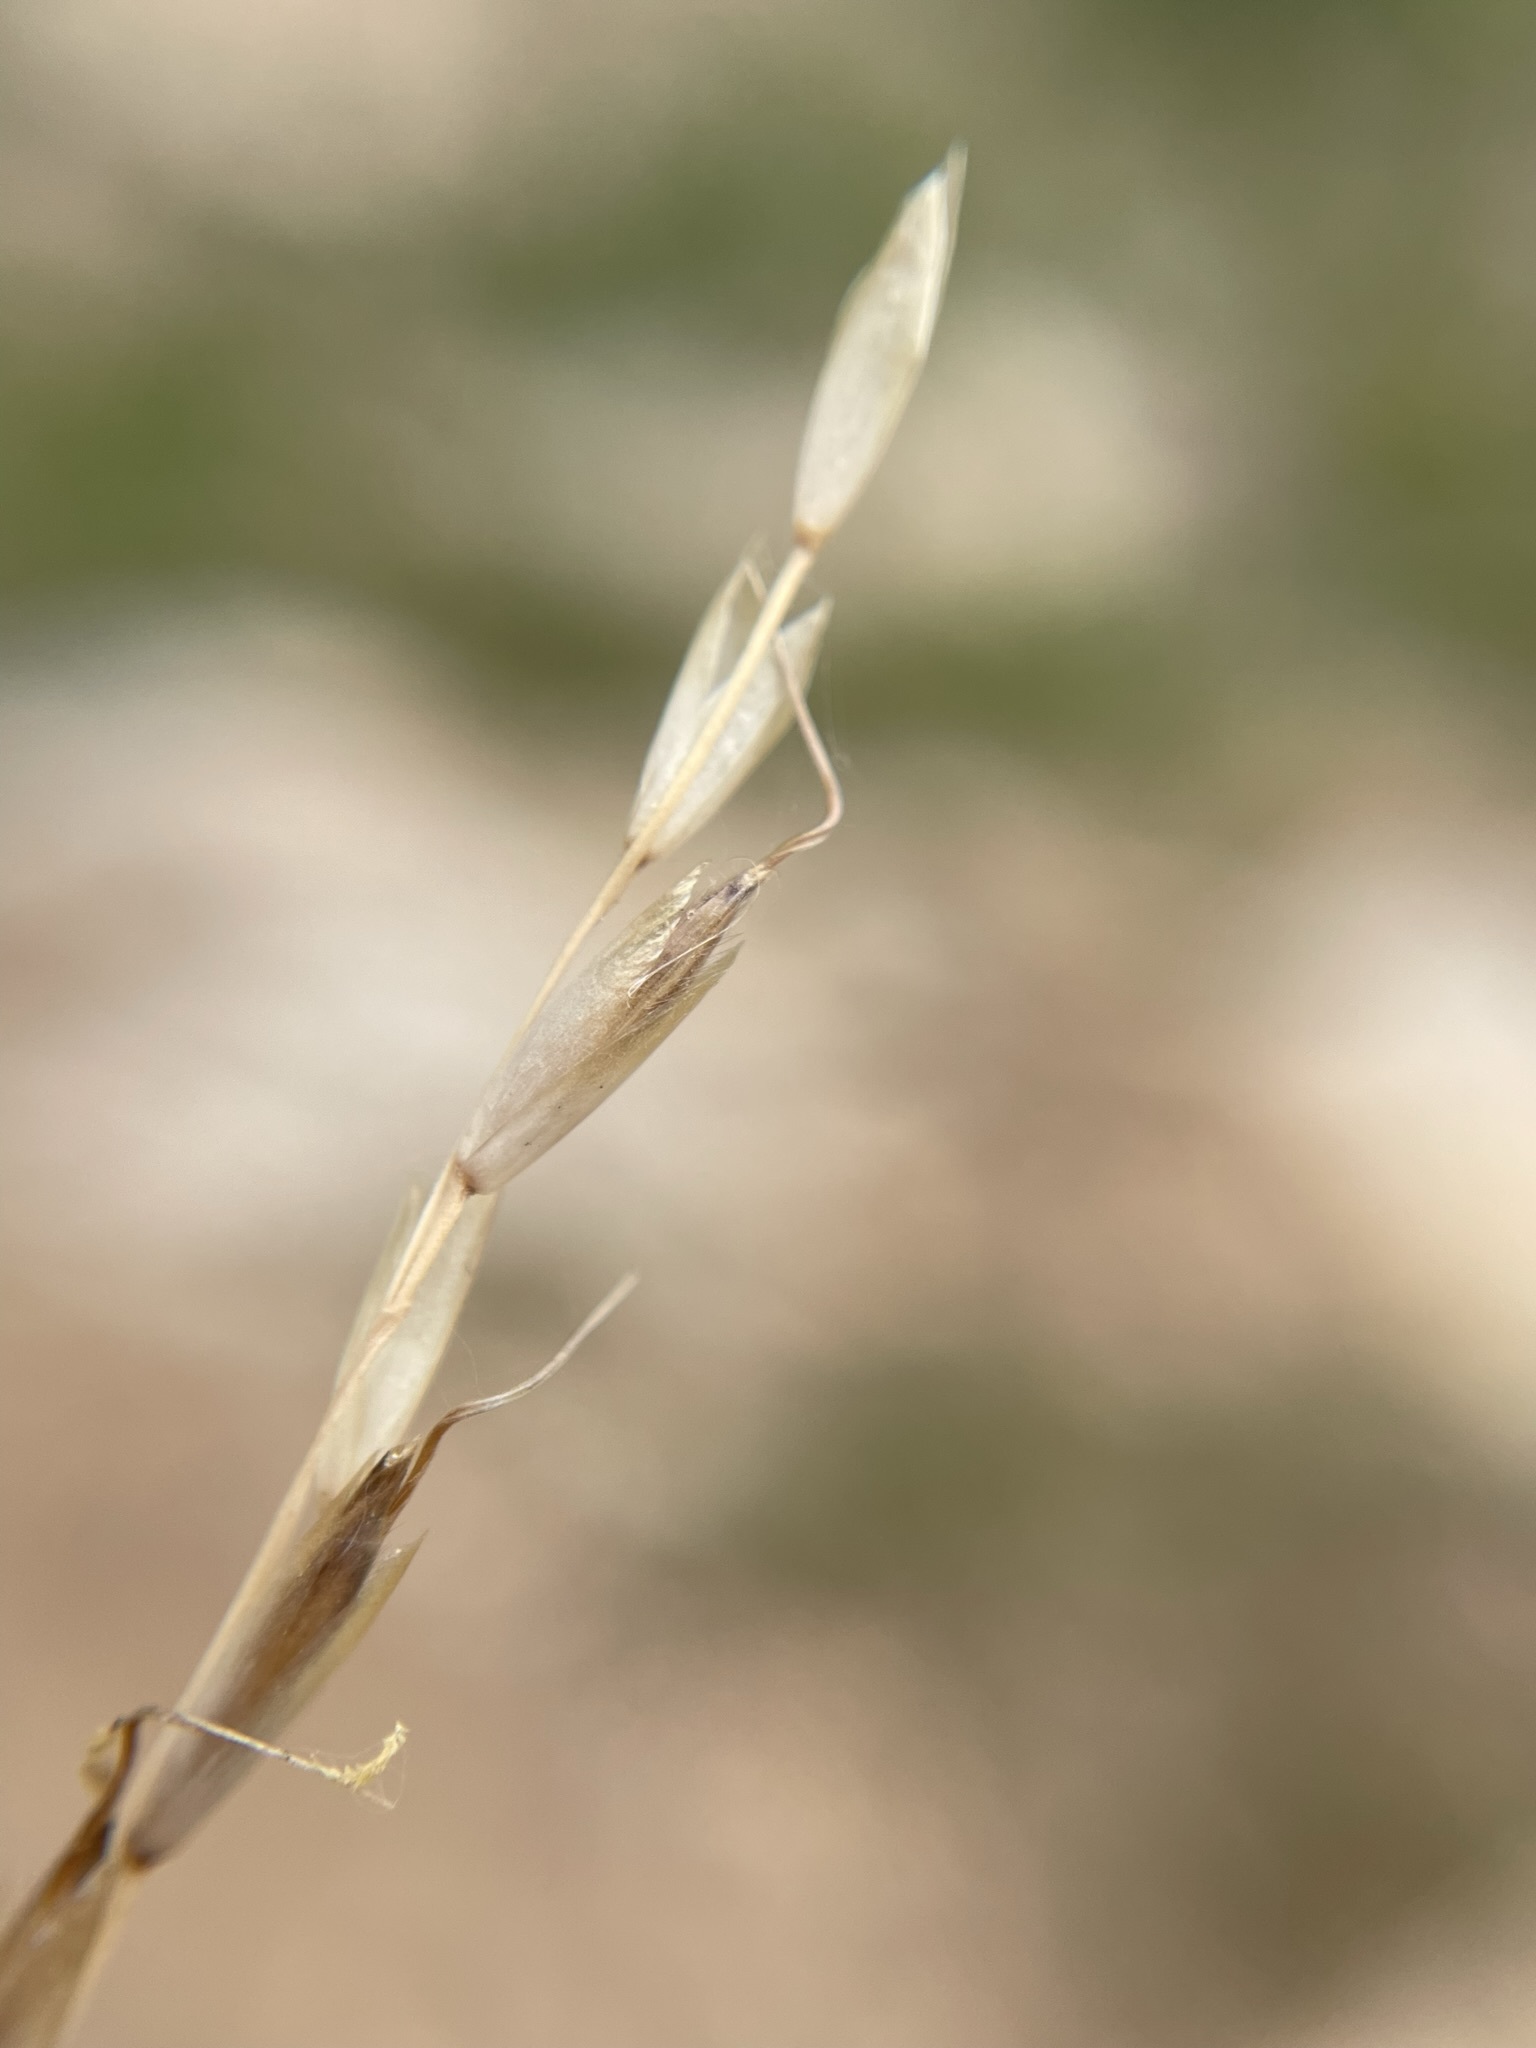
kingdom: Plantae
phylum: Tracheophyta
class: Liliopsida
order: Poales
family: Poaceae
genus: Piptatheropsis
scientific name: Piptatheropsis exigua
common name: Little mountain ricegrass
